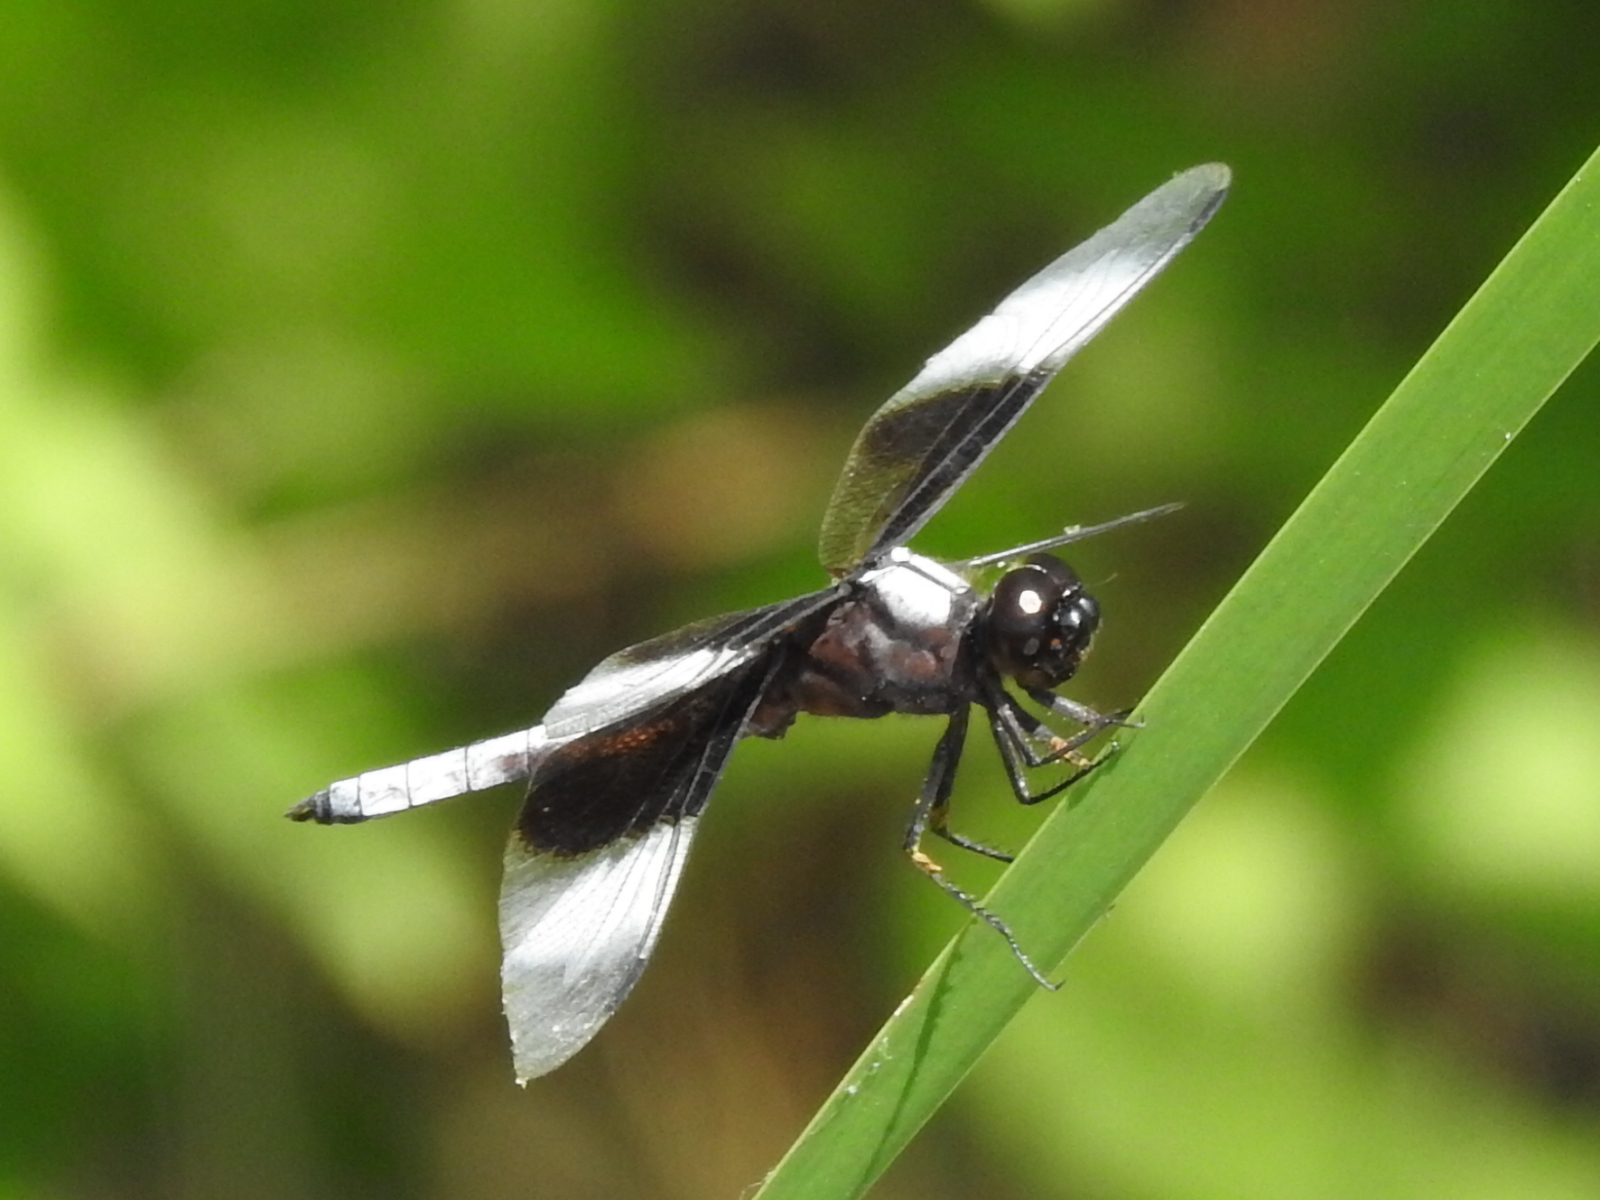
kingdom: Animalia
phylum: Arthropoda
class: Insecta
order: Odonata
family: Libellulidae
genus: Libellula
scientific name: Libellula luctuosa
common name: Widow skimmer
